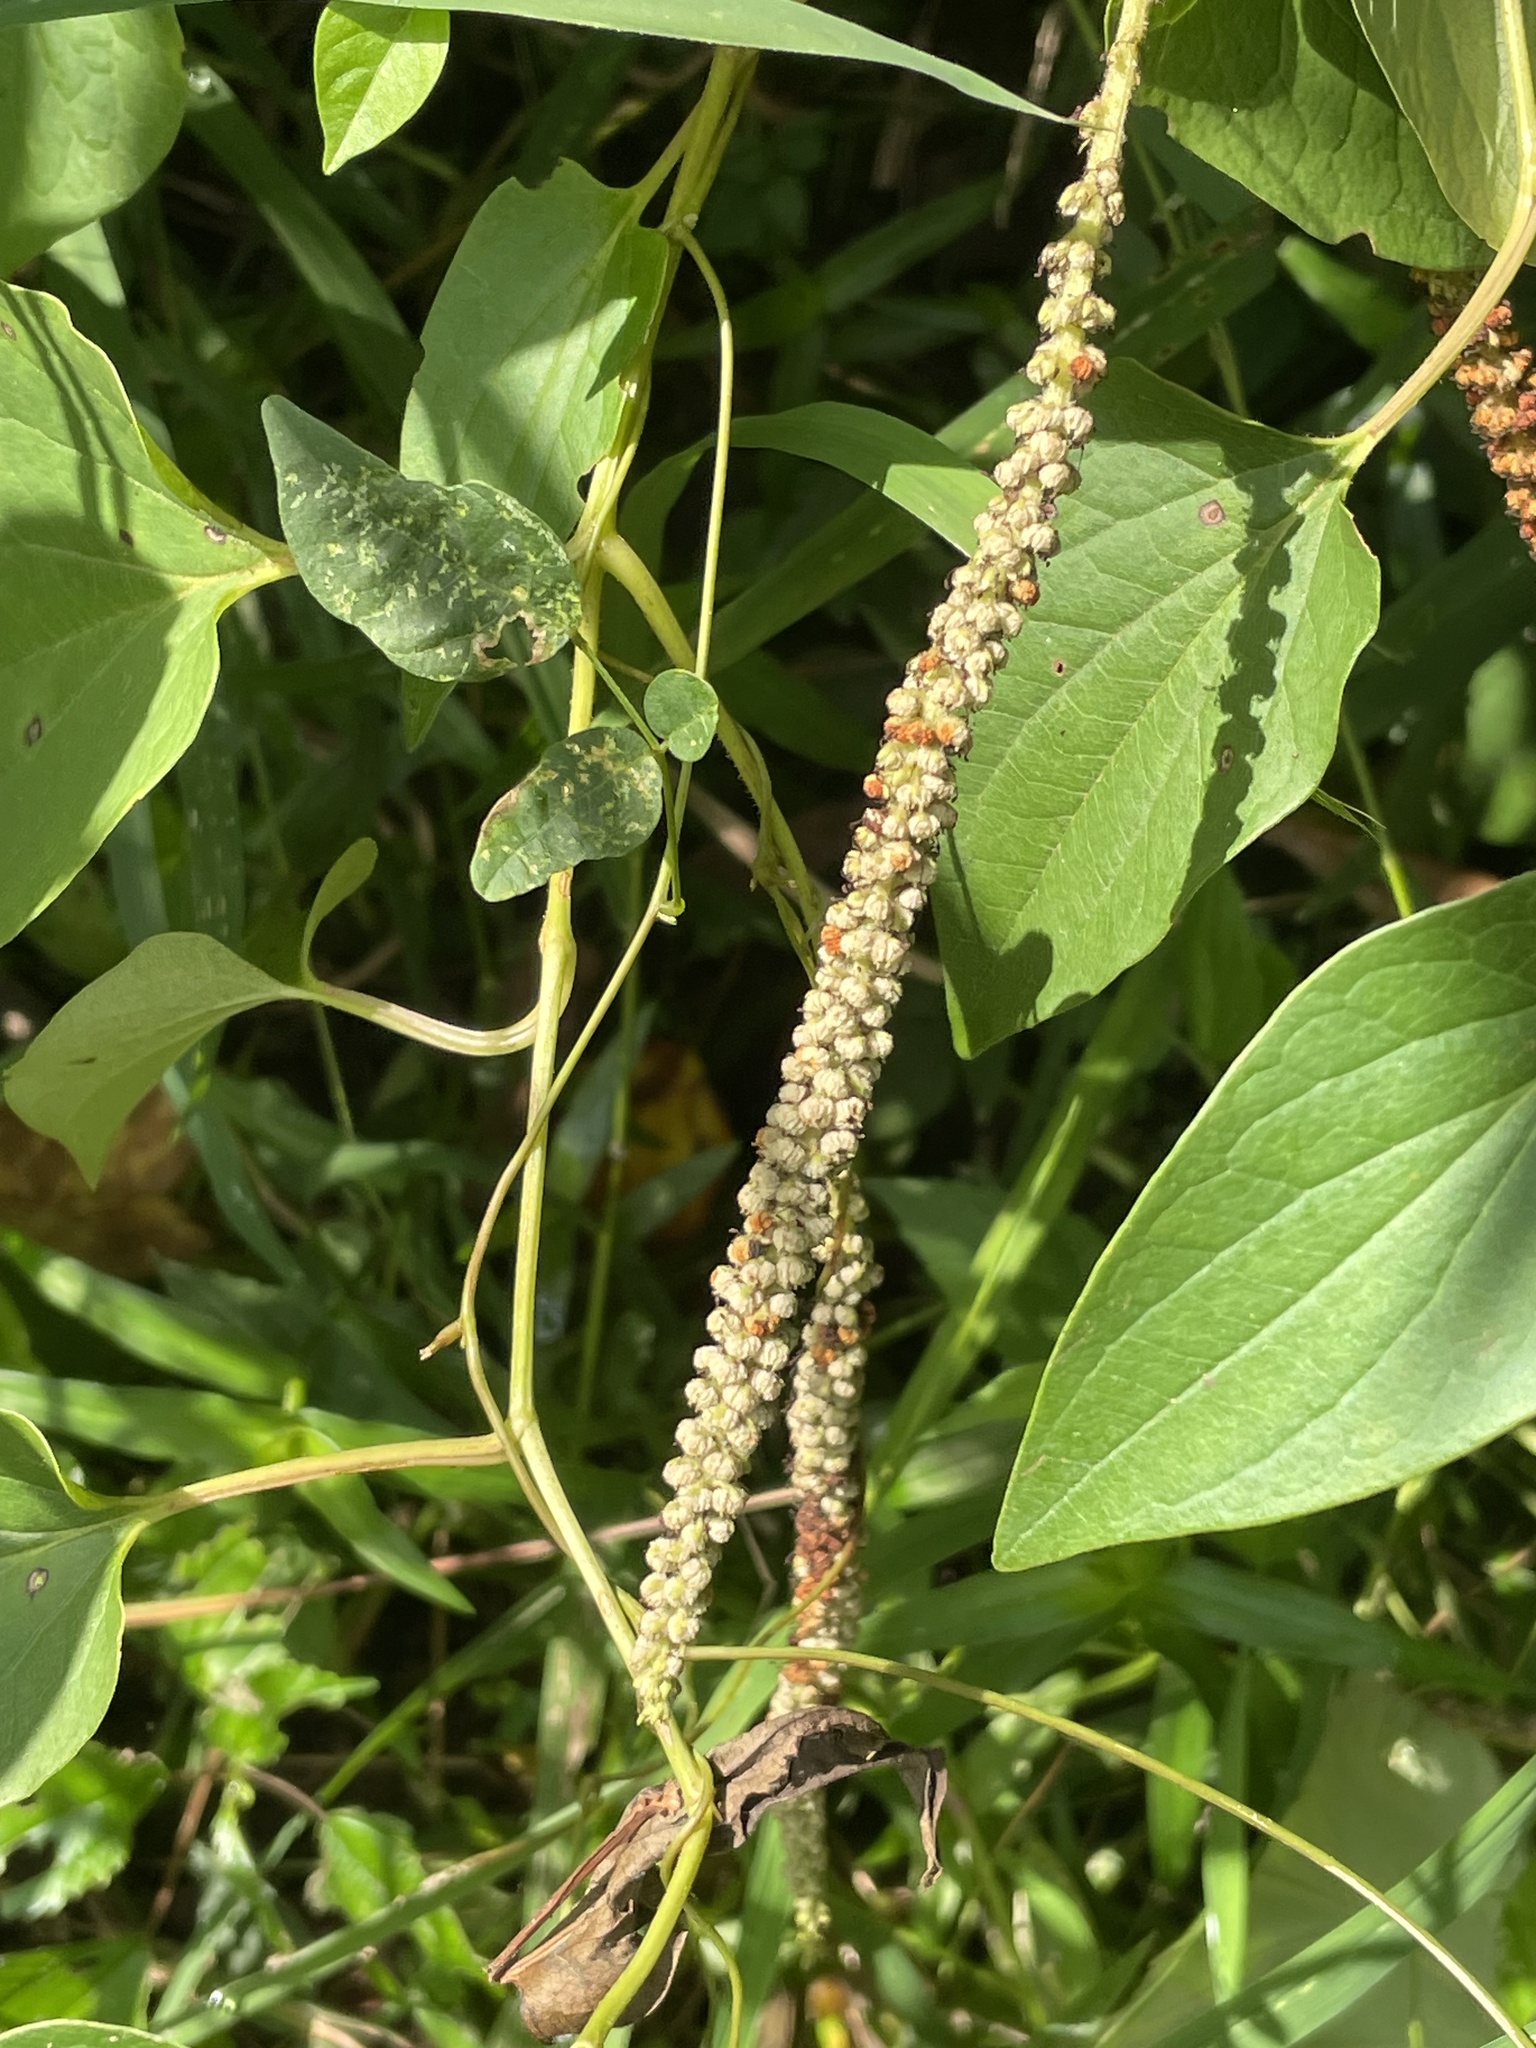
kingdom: Plantae
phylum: Tracheophyta
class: Magnoliopsida
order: Piperales
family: Saururaceae
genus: Saururus
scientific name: Saururus cernuus
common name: Lizard's-tail
